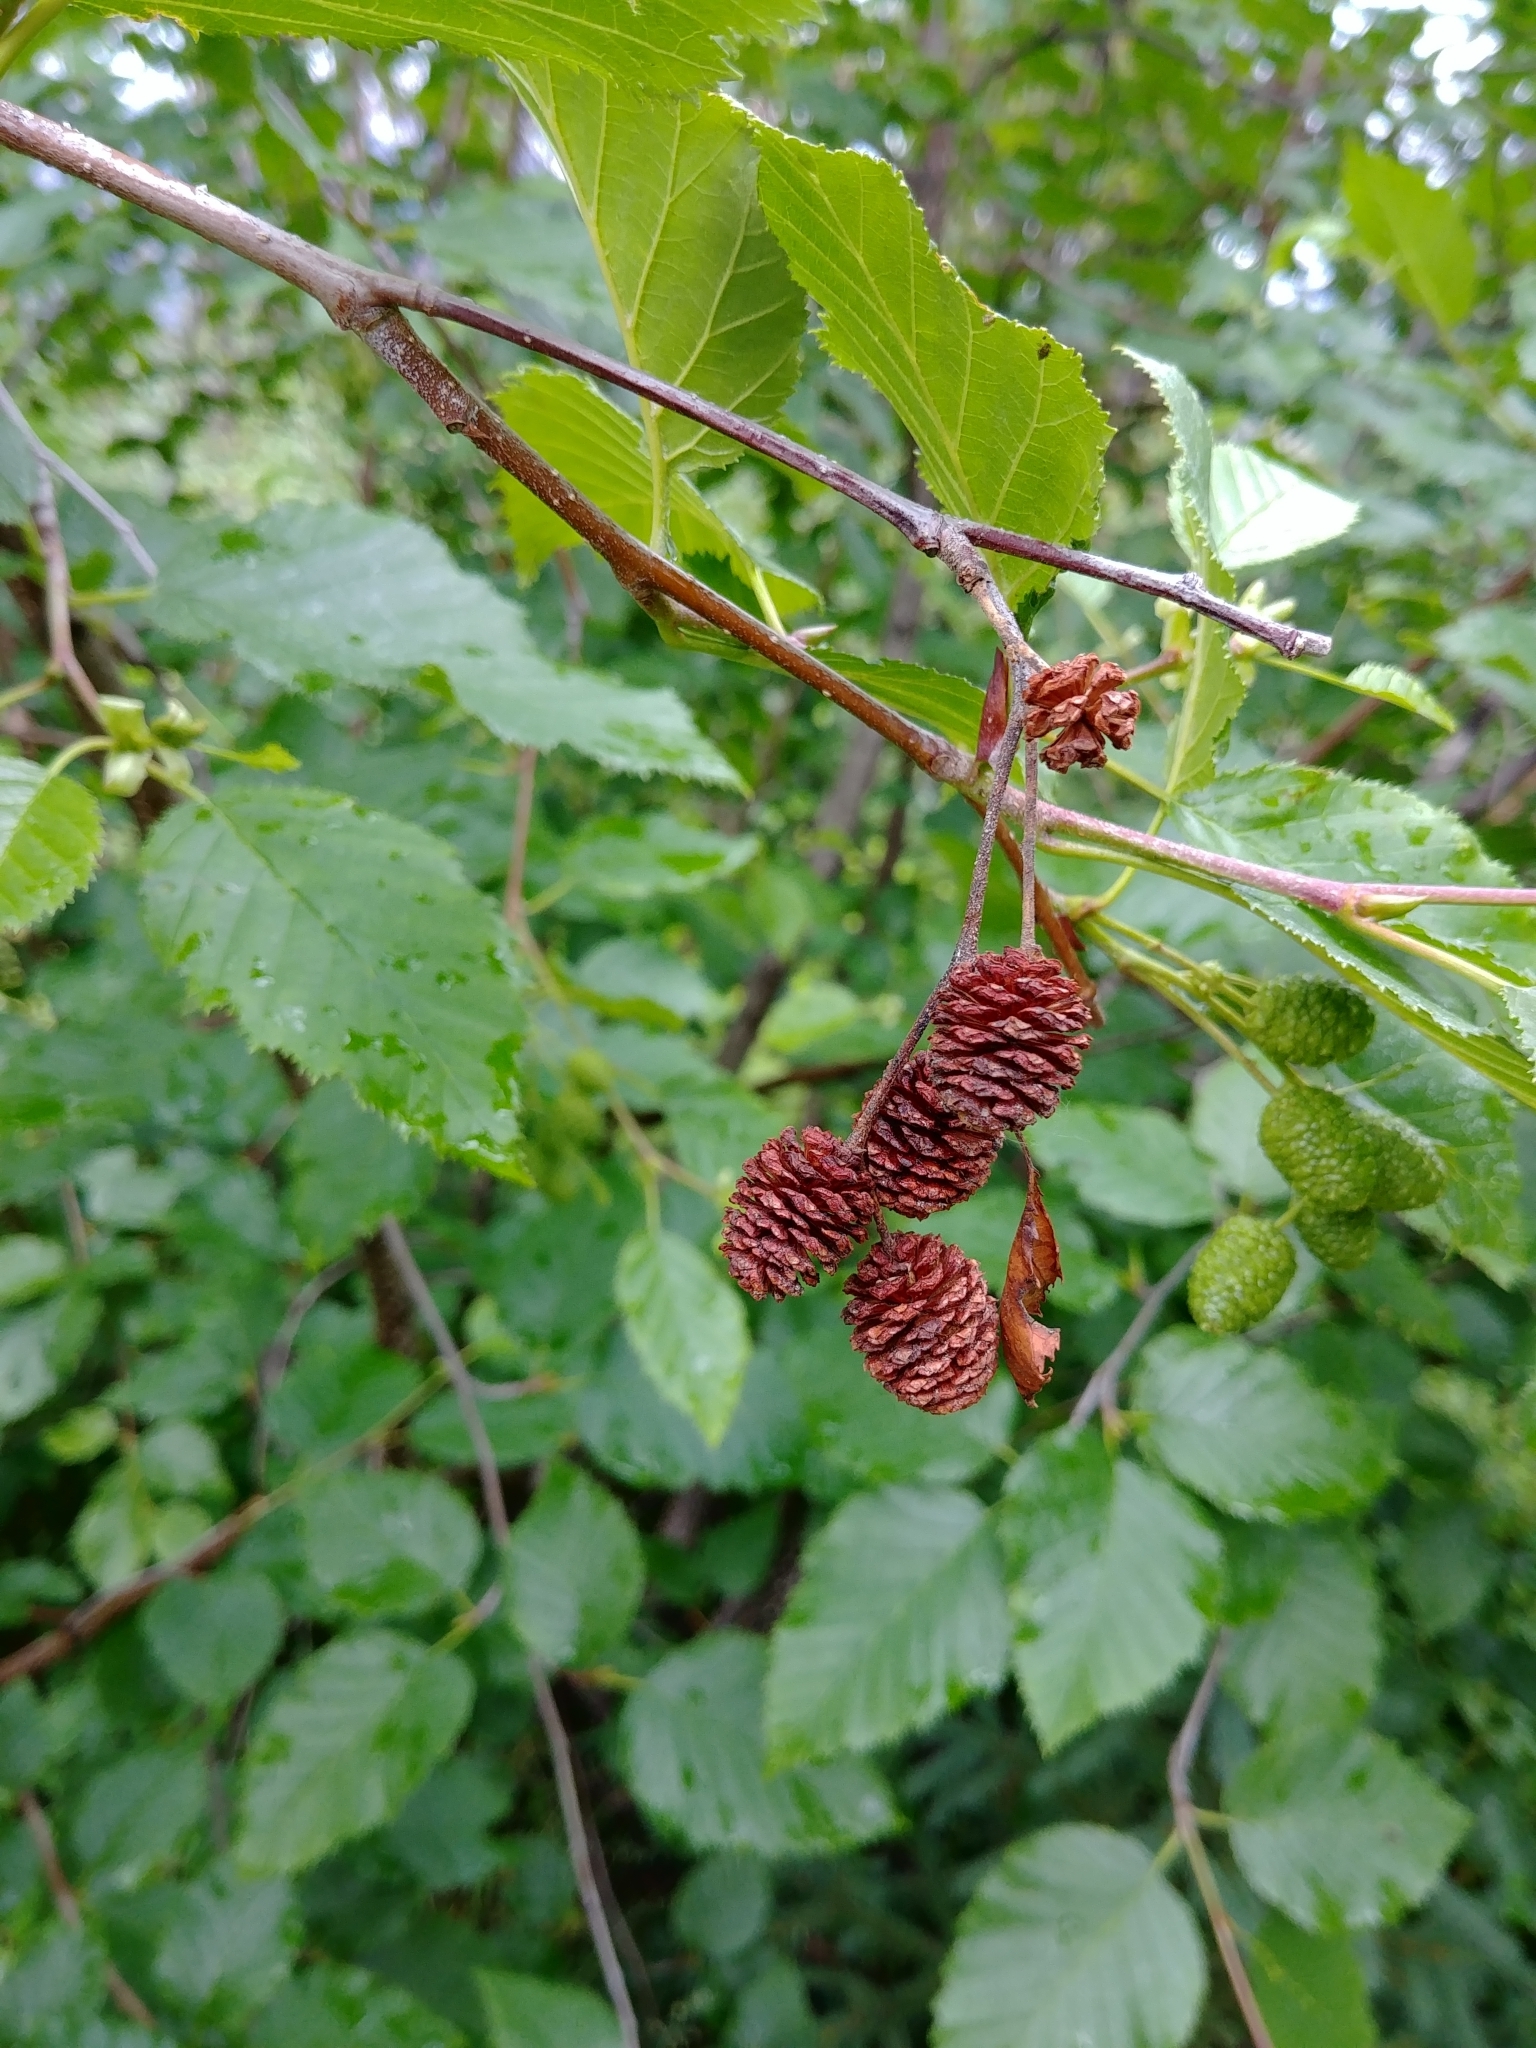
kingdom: Plantae
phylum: Tracheophyta
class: Magnoliopsida
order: Fagales
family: Betulaceae
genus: Alnus
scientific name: Alnus incana
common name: Grey alder
